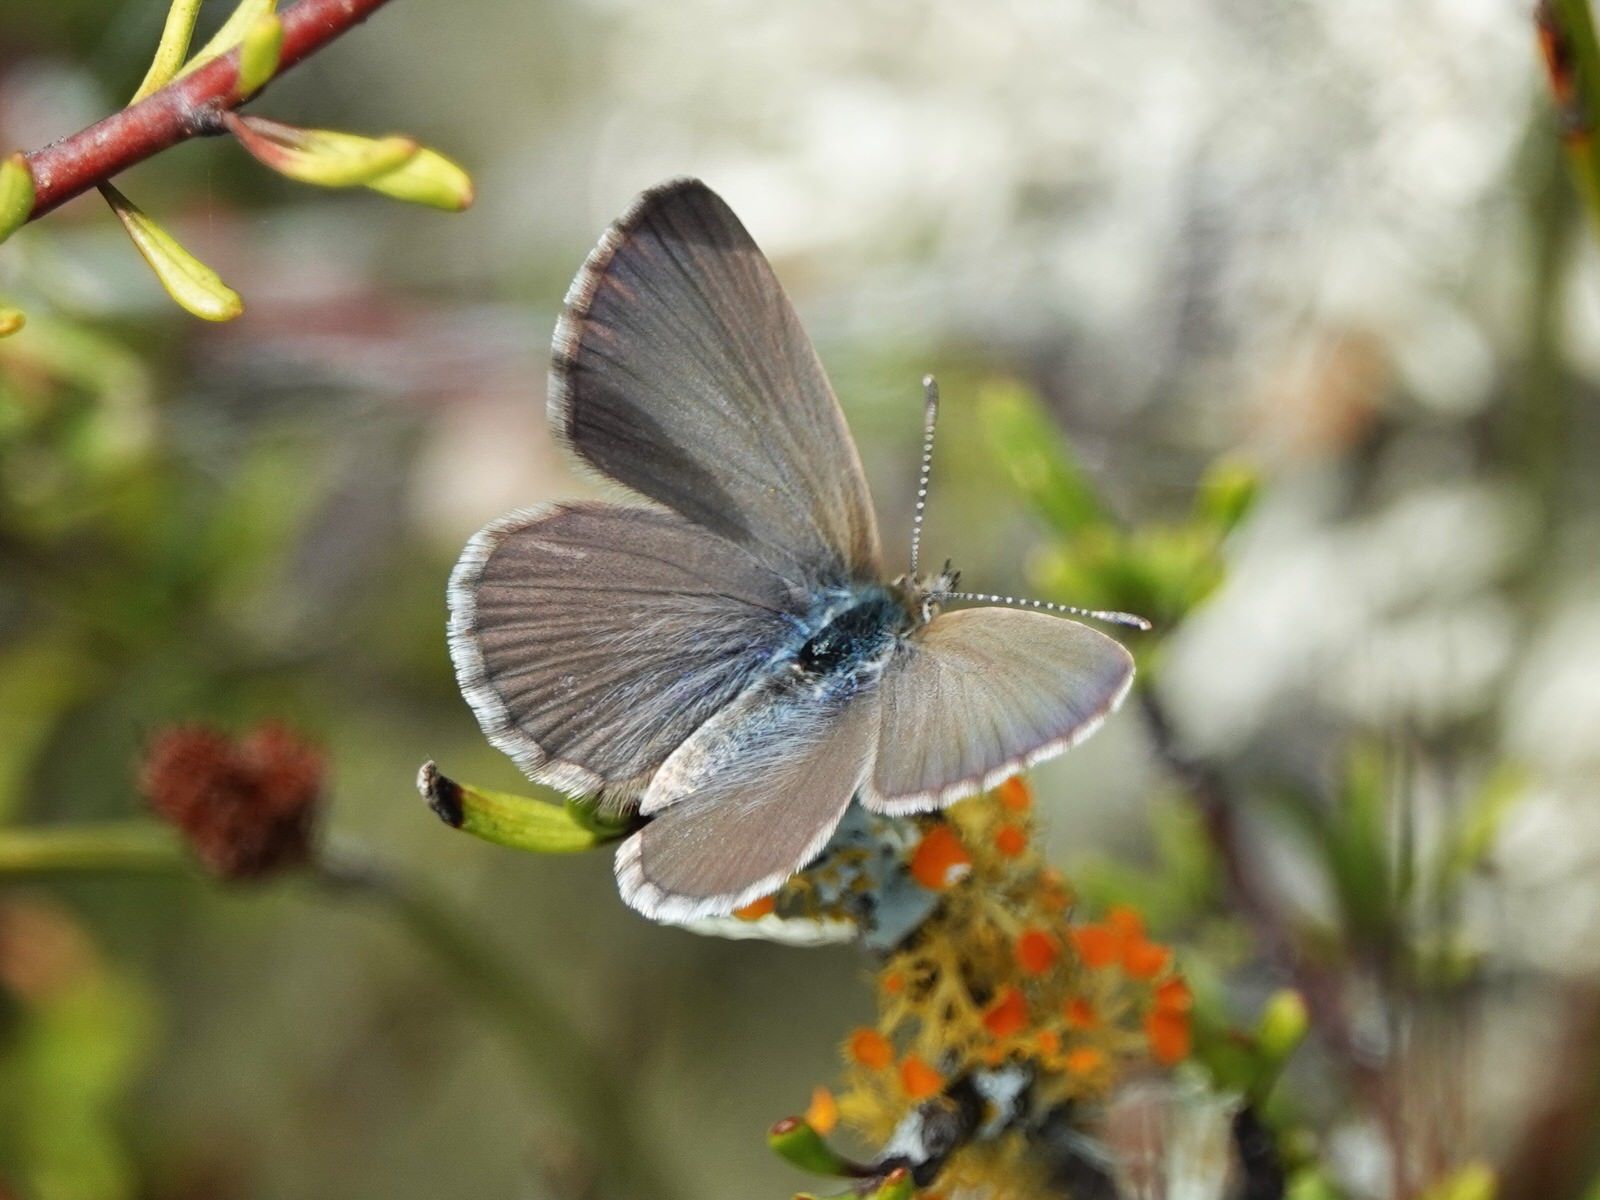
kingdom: Animalia
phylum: Arthropoda
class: Insecta
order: Lepidoptera
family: Lycaenidae
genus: Zizina
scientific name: Zizina labradus
